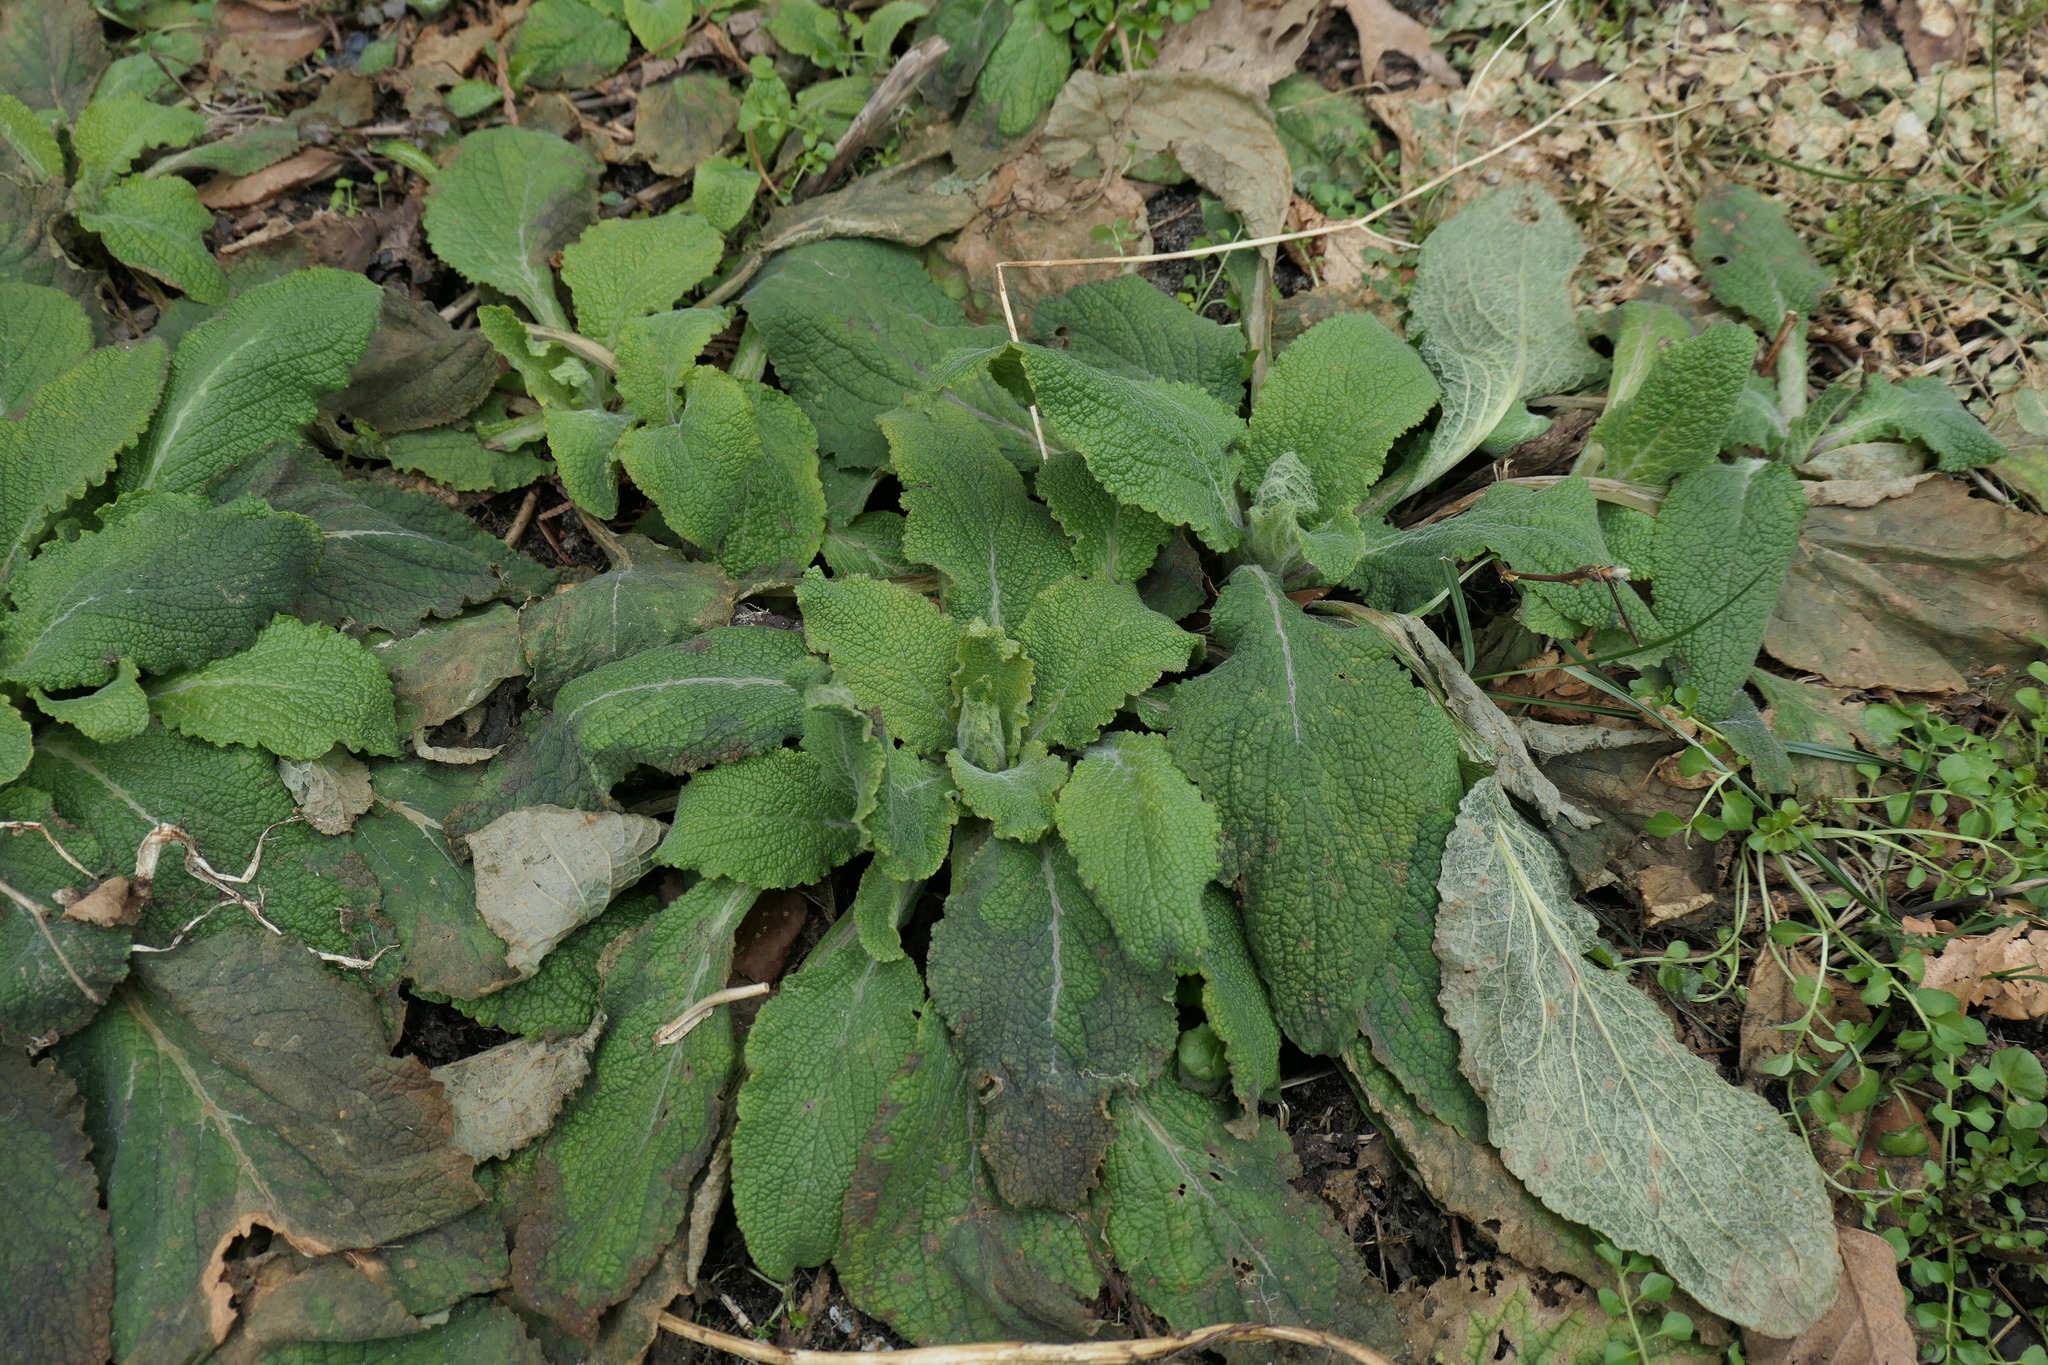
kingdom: Plantae
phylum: Tracheophyta
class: Magnoliopsida
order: Lamiales
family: Plantaginaceae
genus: Digitalis
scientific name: Digitalis purpurea
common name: Foxglove
